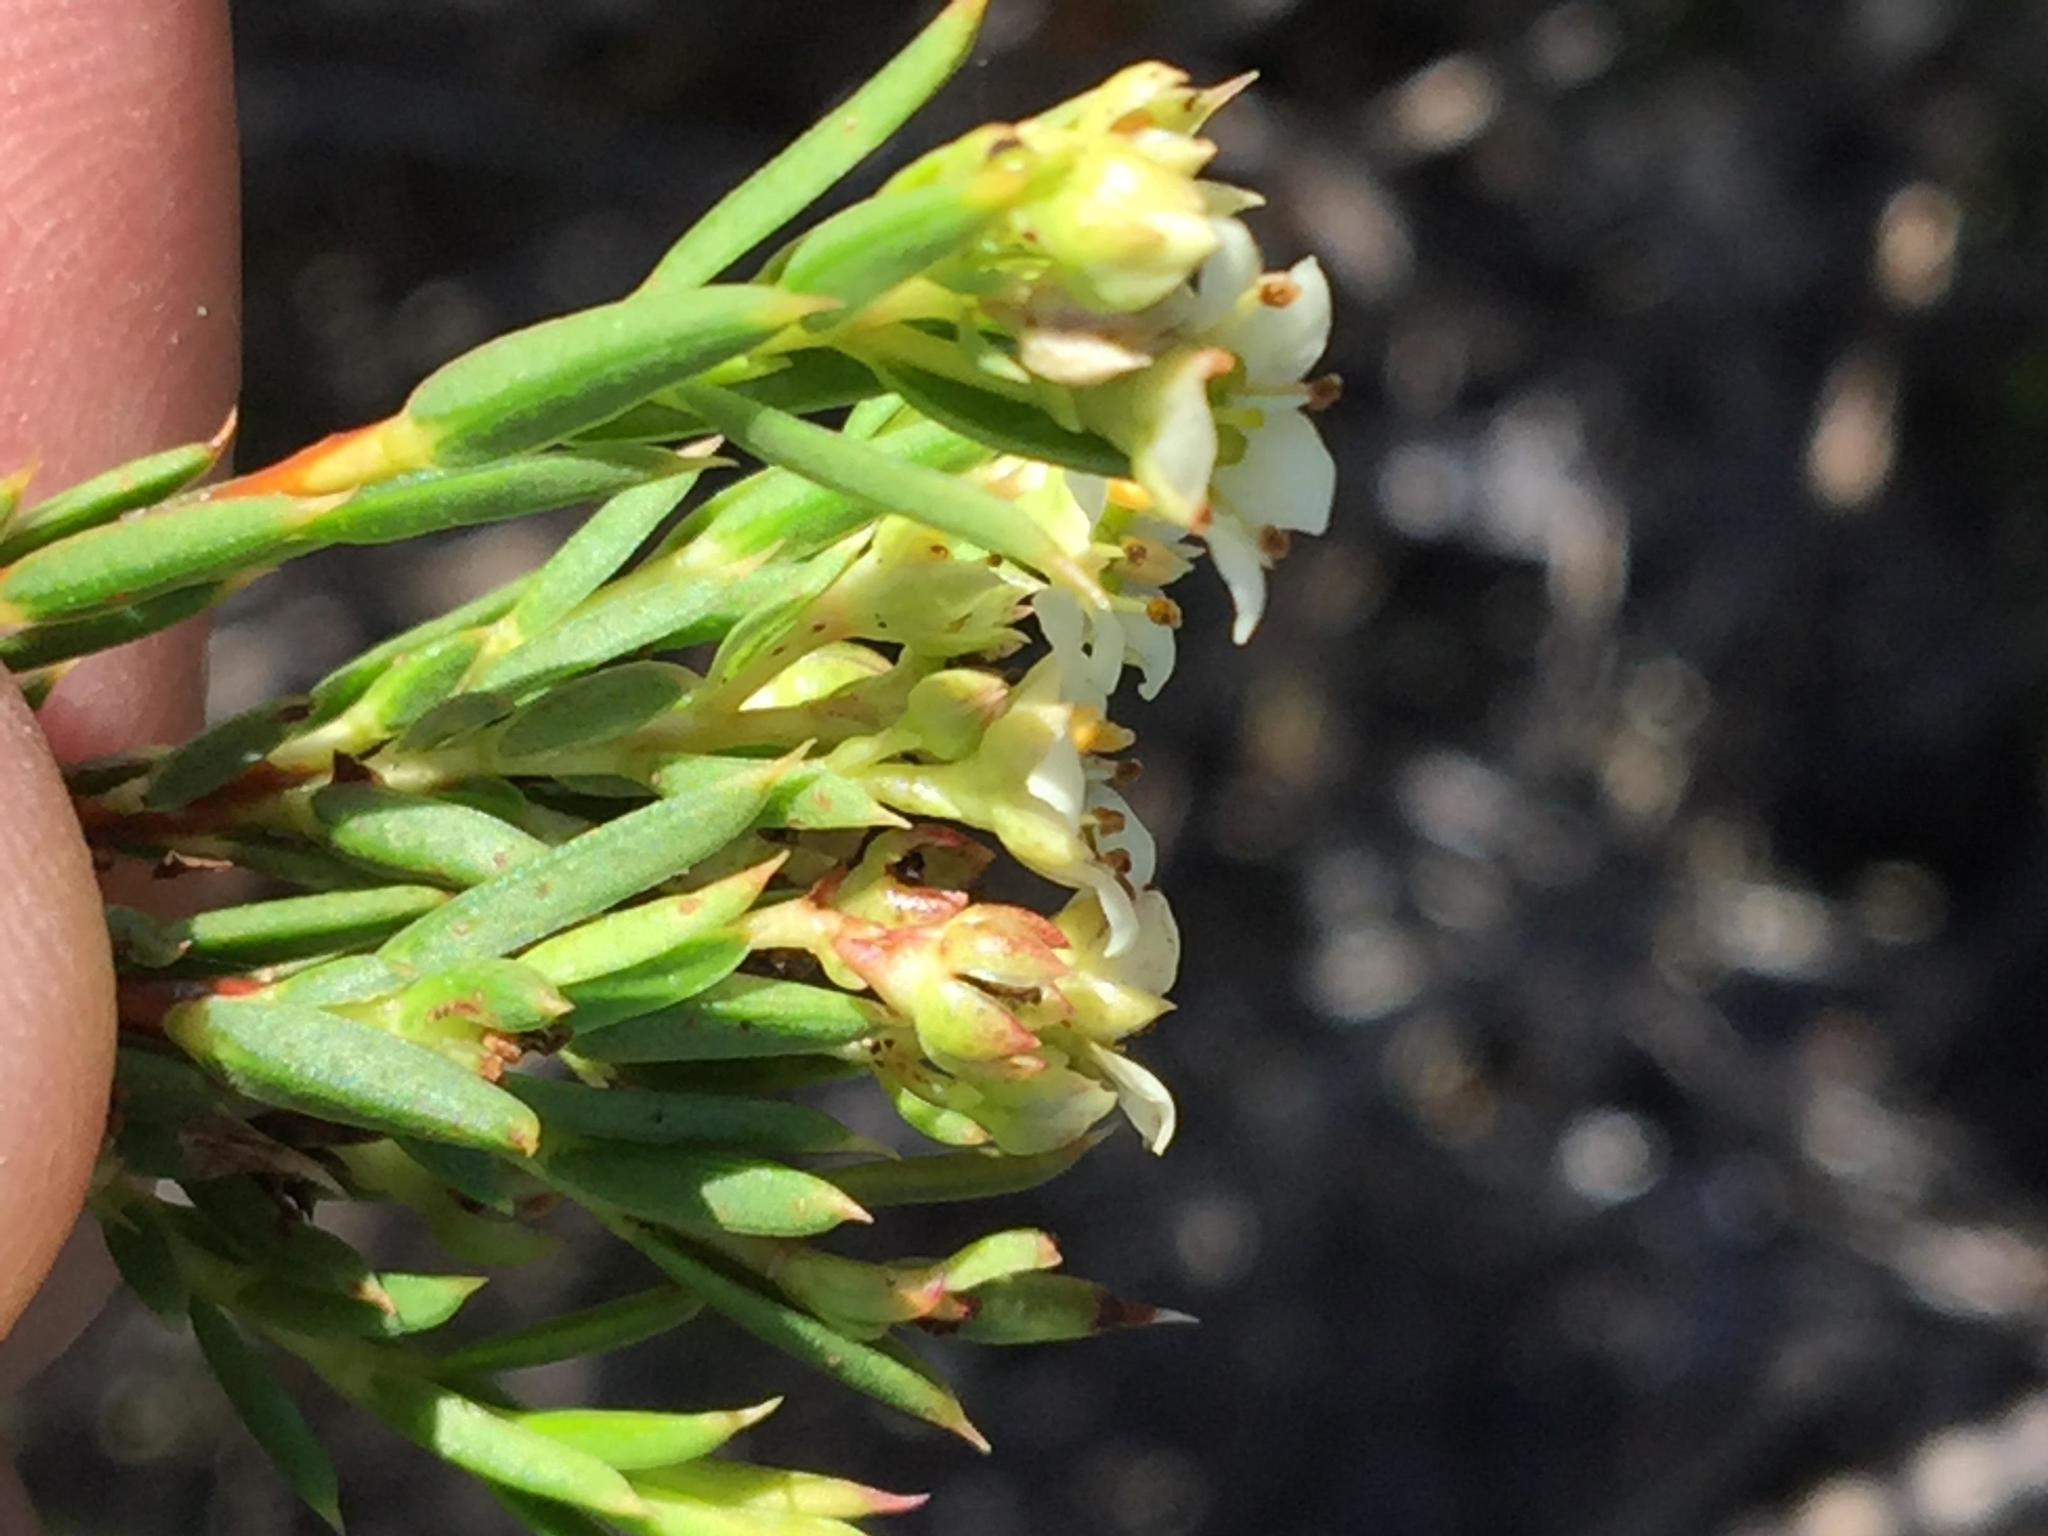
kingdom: Plantae
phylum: Tracheophyta
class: Magnoliopsida
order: Sapindales
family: Rutaceae
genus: Diosma
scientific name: Diosma aristata
